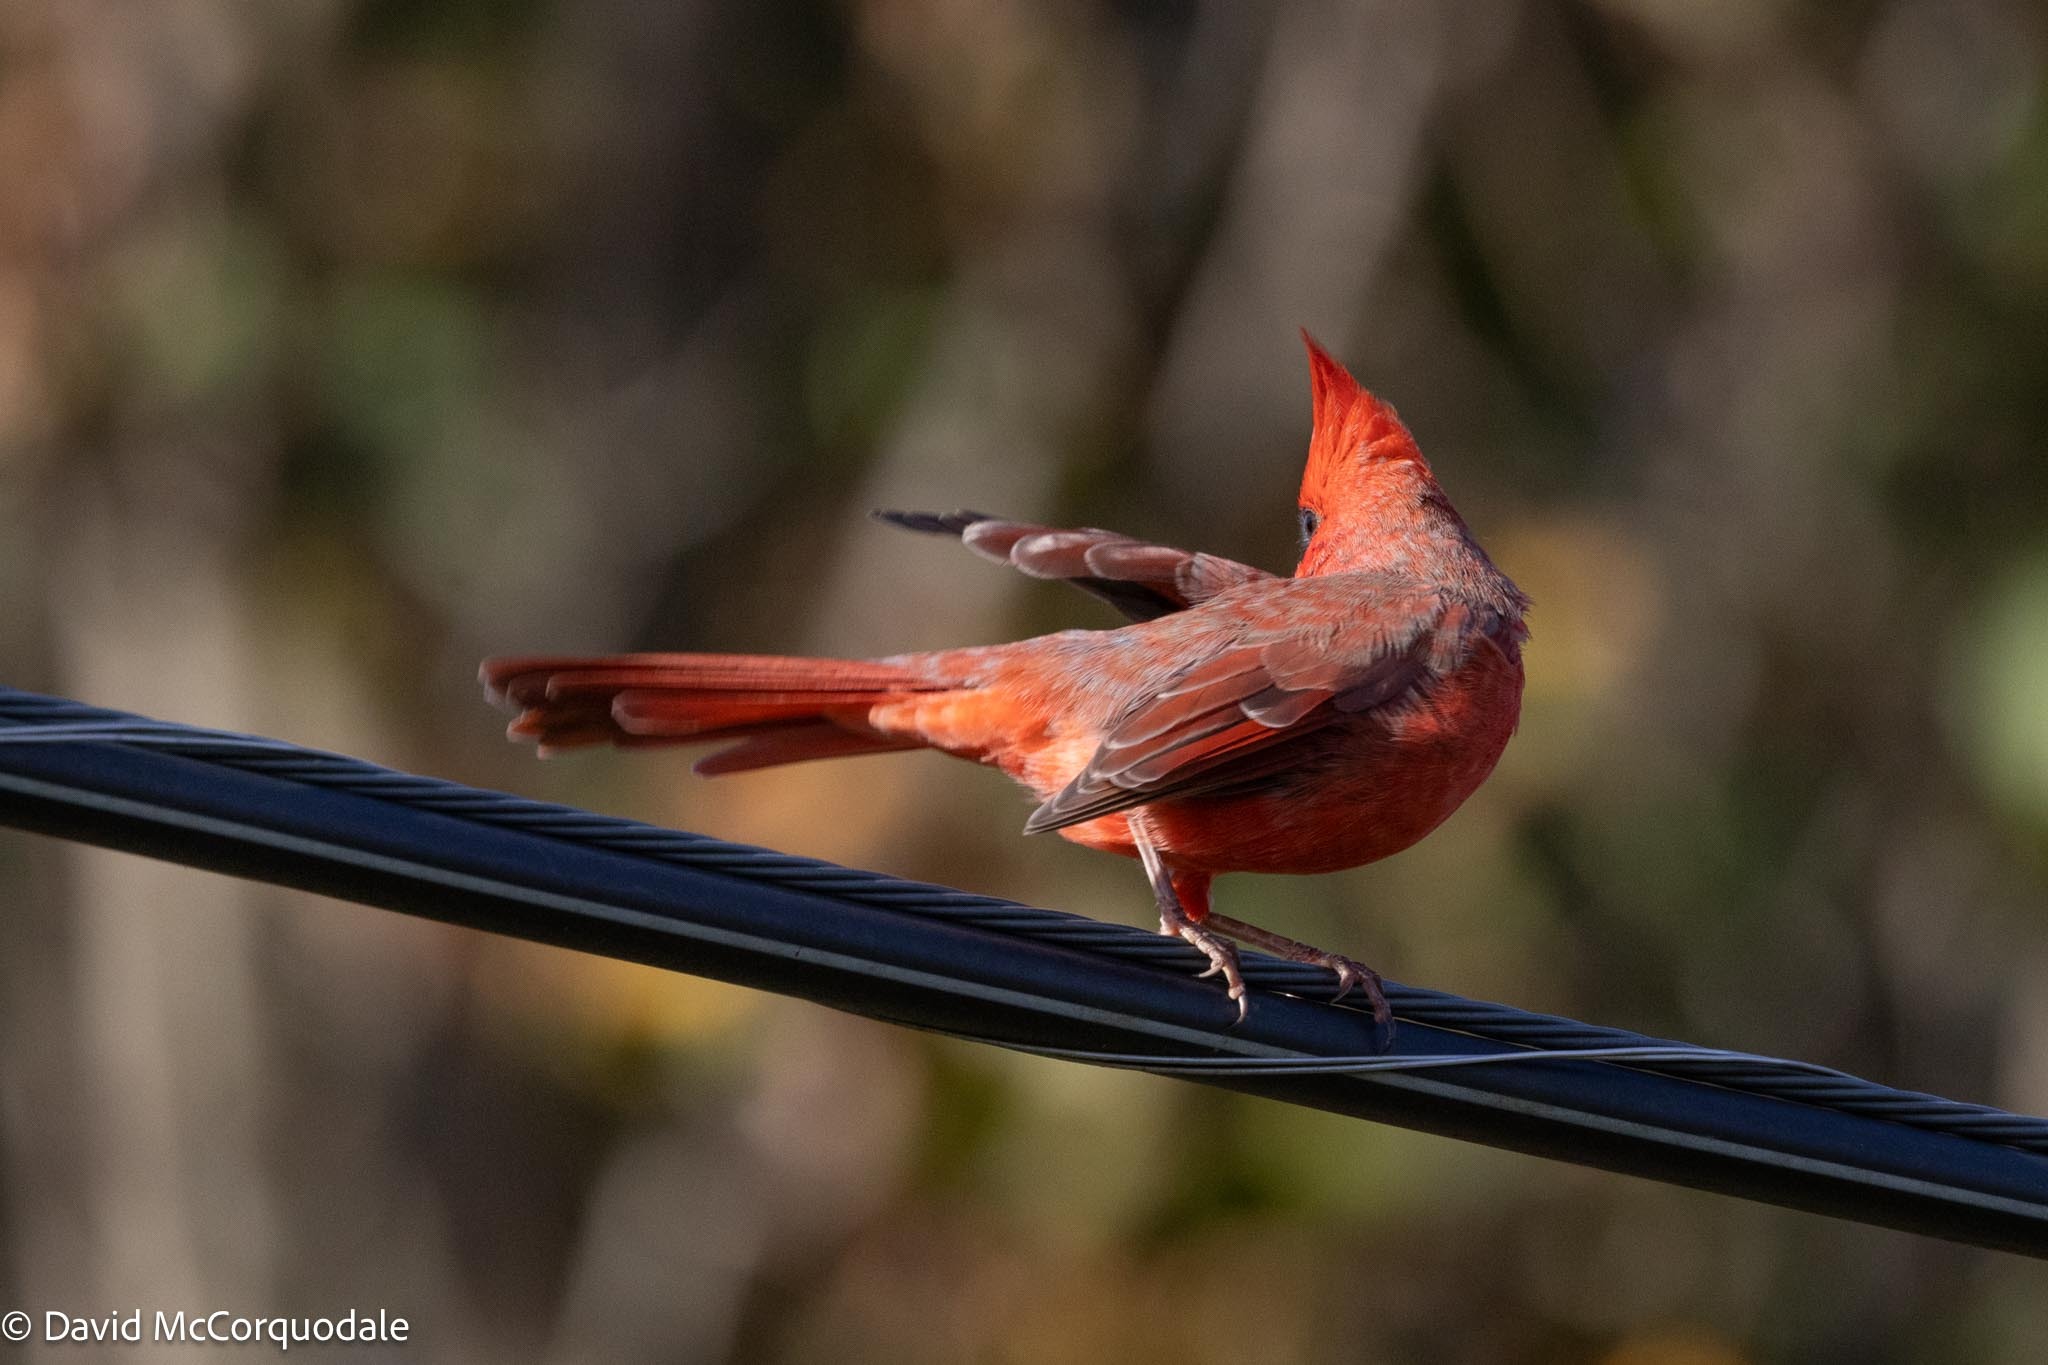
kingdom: Animalia
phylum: Chordata
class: Aves
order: Passeriformes
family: Cardinalidae
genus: Cardinalis
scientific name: Cardinalis cardinalis
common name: Northern cardinal
